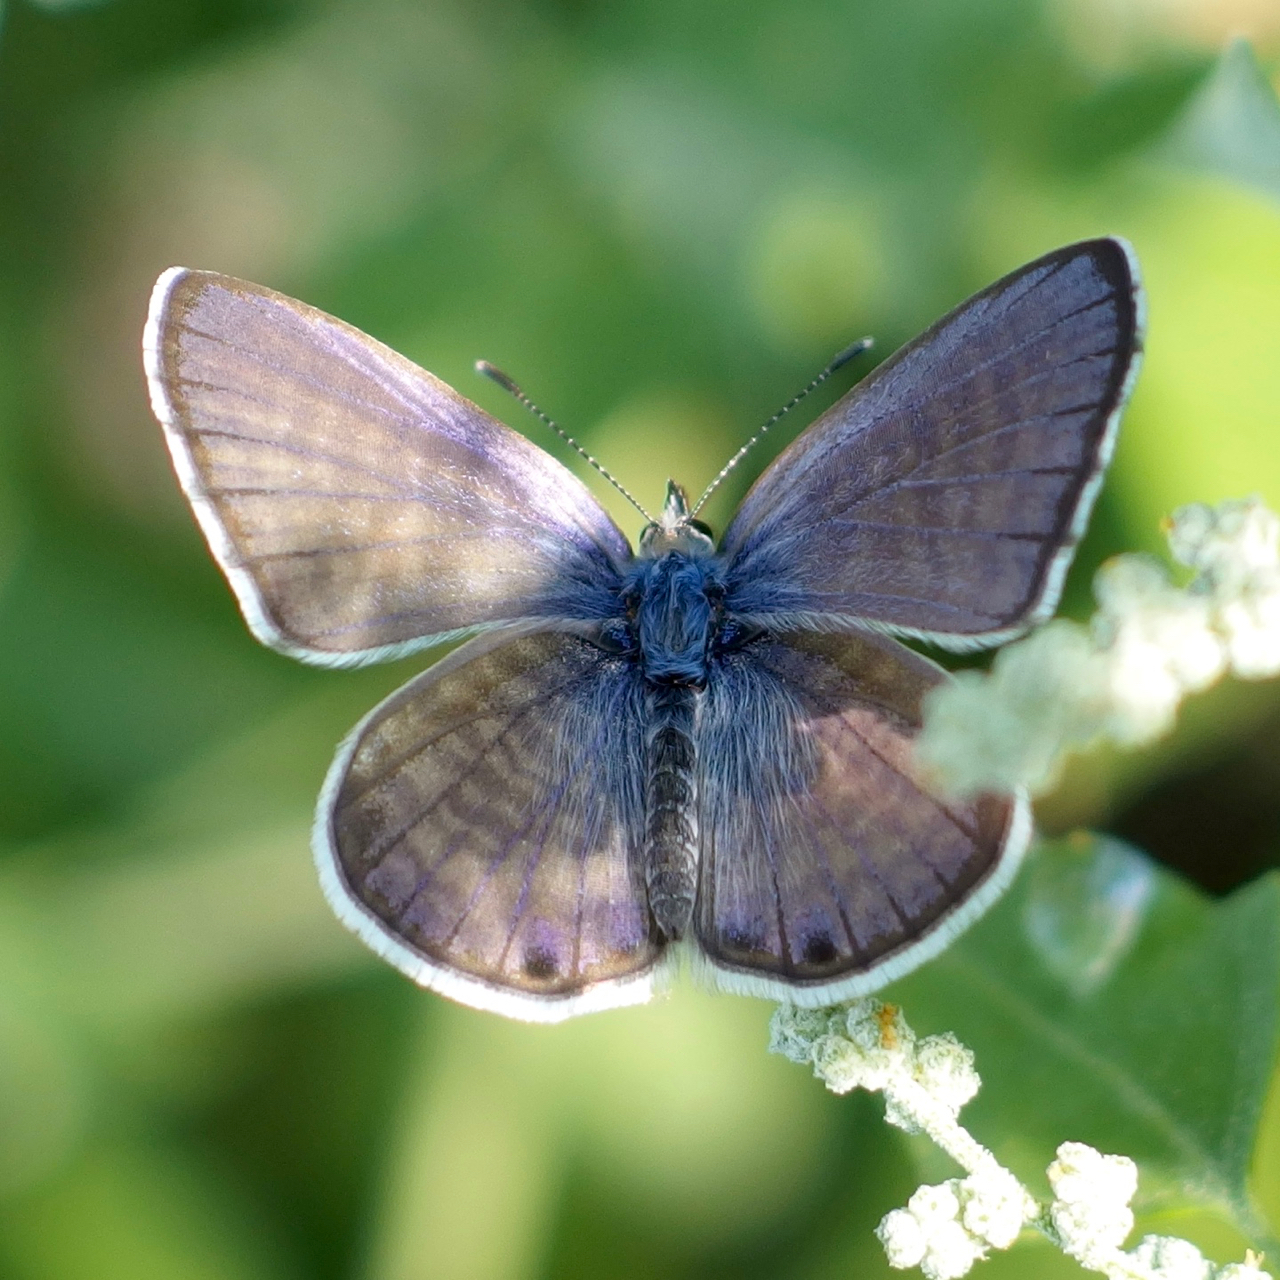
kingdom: Animalia
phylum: Arthropoda
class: Insecta
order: Lepidoptera
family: Lycaenidae
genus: Leptotes
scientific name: Leptotes marina
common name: Marine blue
